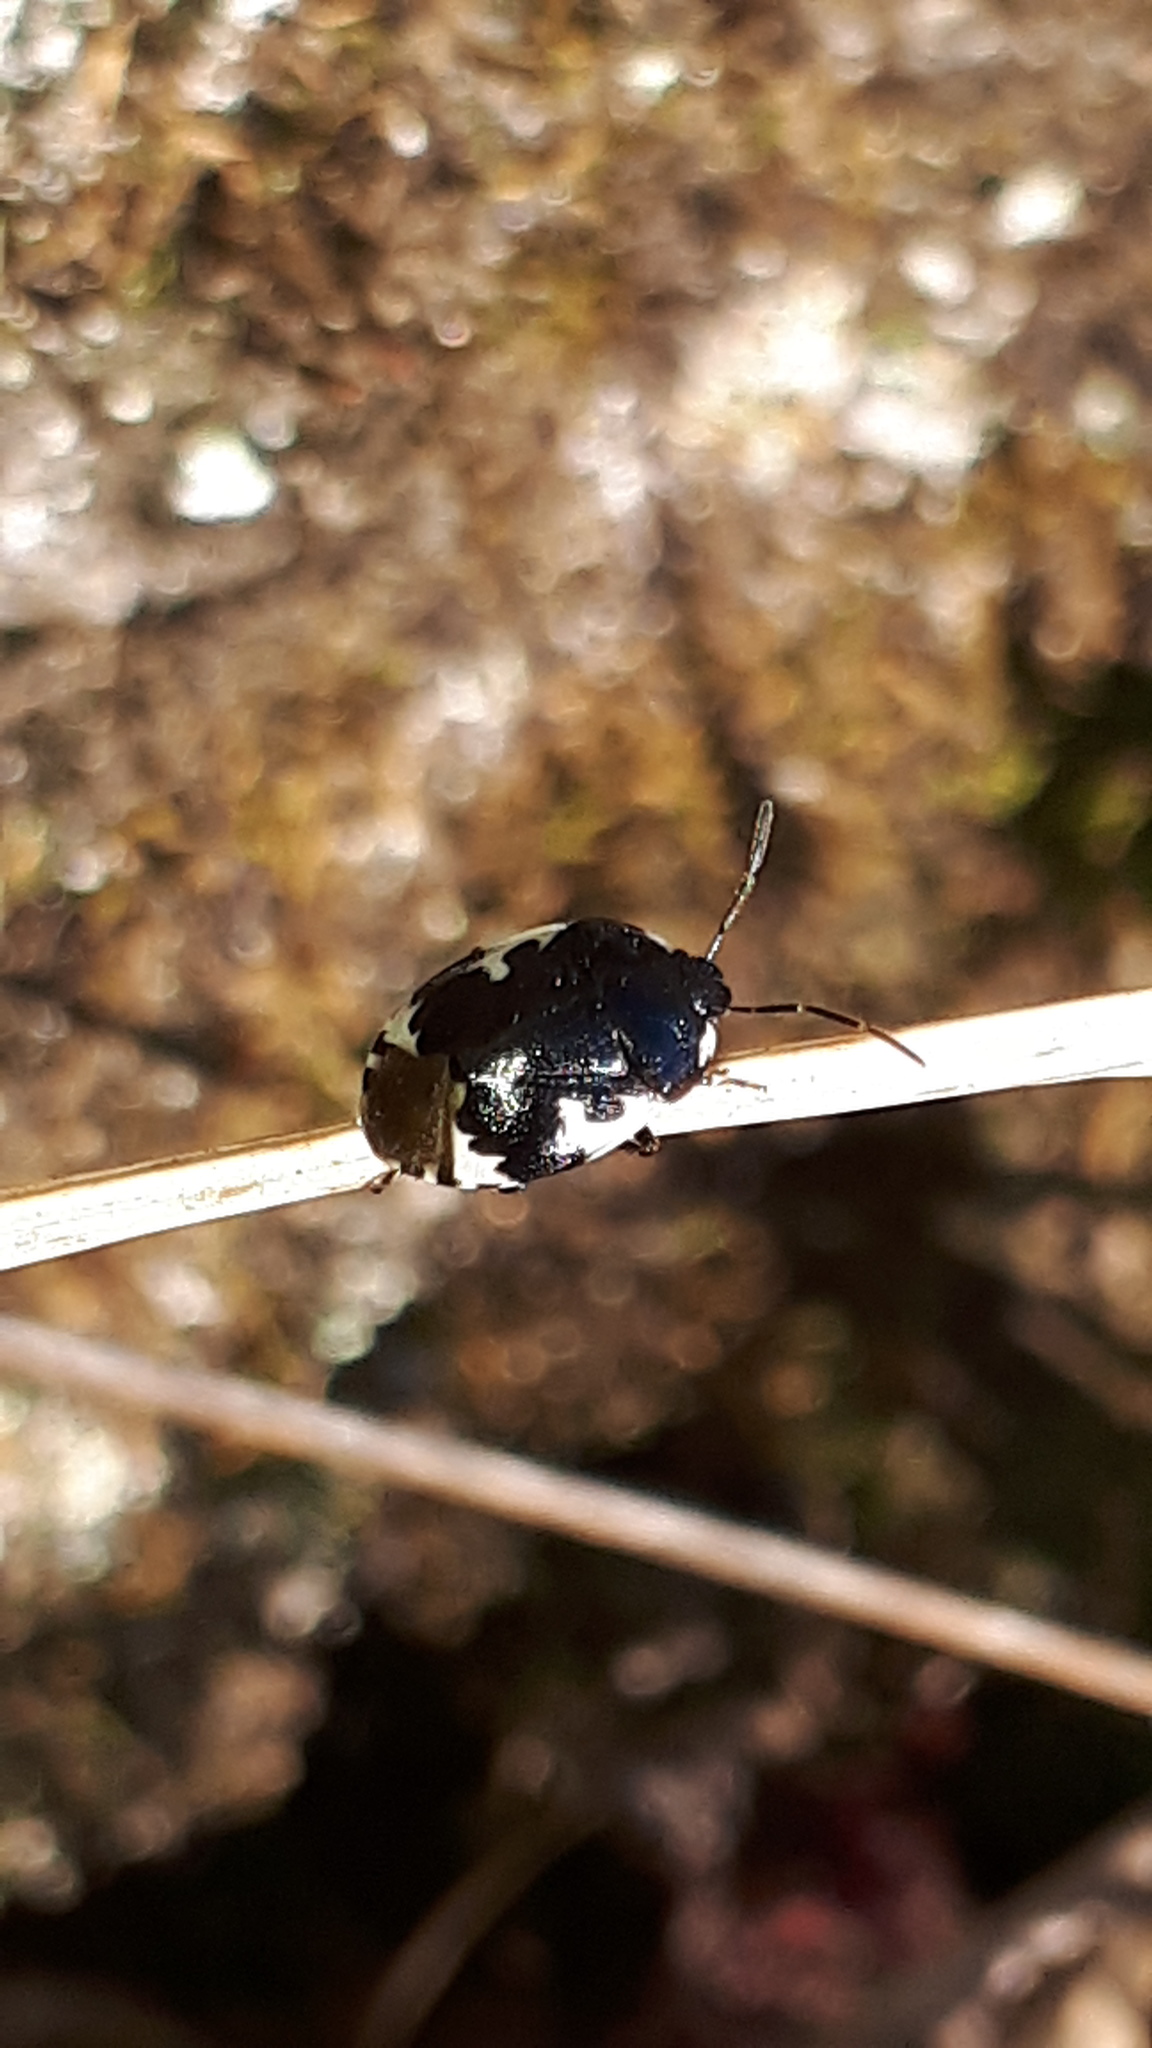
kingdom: Animalia
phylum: Arthropoda
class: Insecta
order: Hemiptera
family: Cydnidae
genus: Tritomegas
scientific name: Tritomegas bicolor
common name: Pied shieldbug
